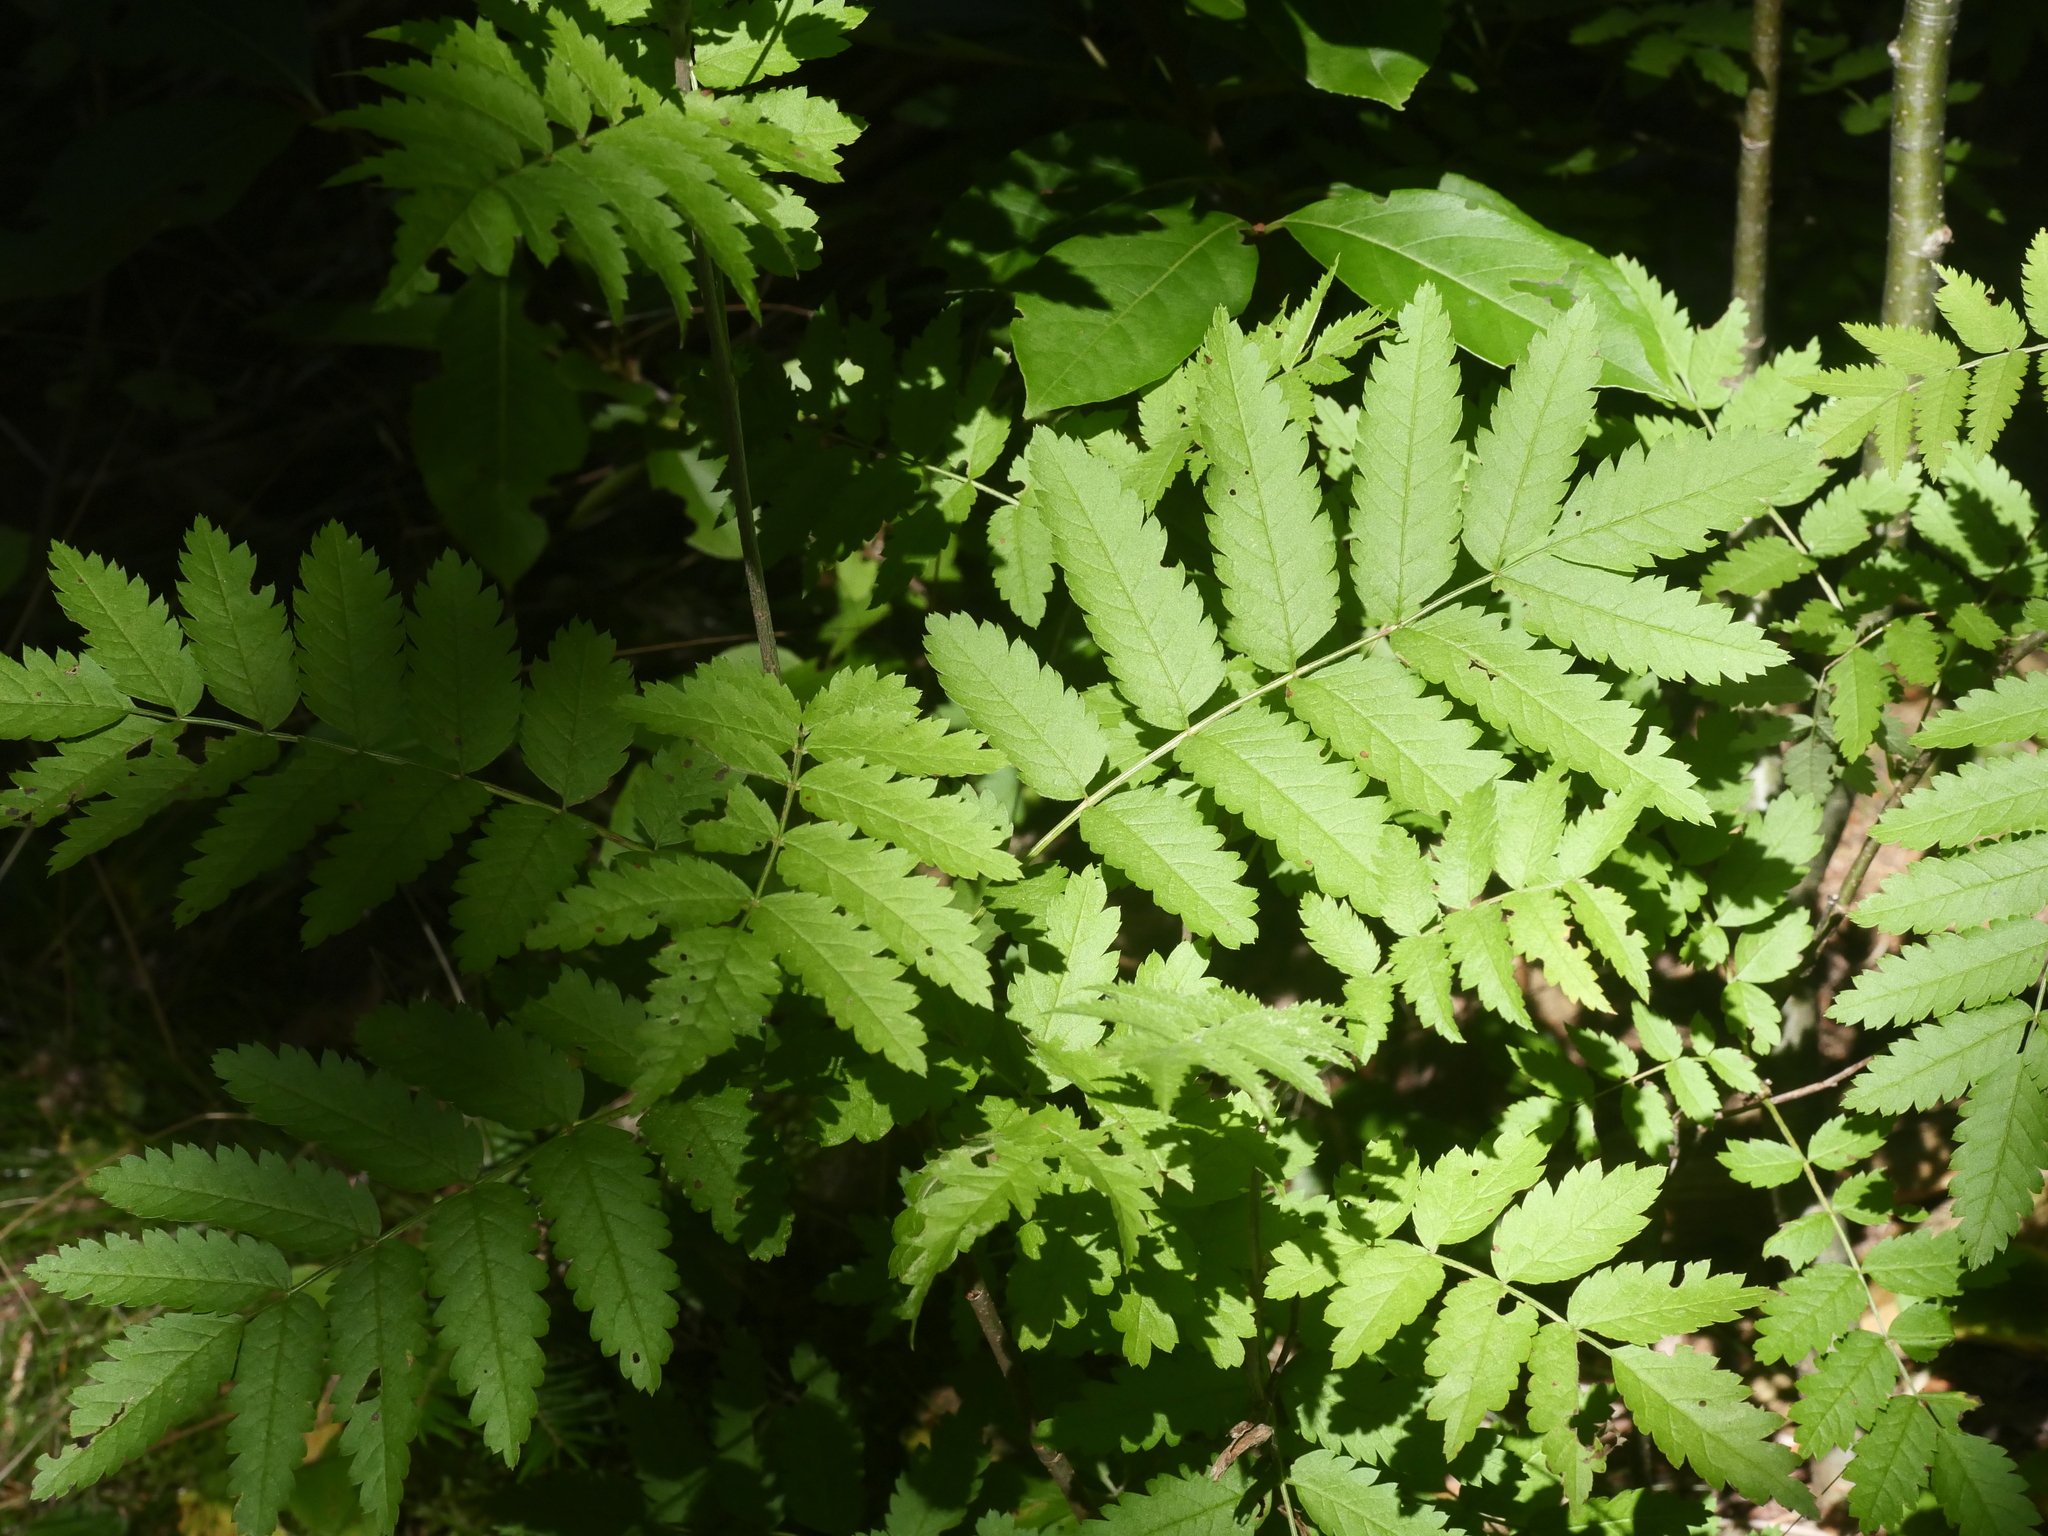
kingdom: Plantae
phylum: Tracheophyta
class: Magnoliopsida
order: Rosales
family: Rosaceae
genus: Sorbus
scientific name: Sorbus aucuparia
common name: Rowan
